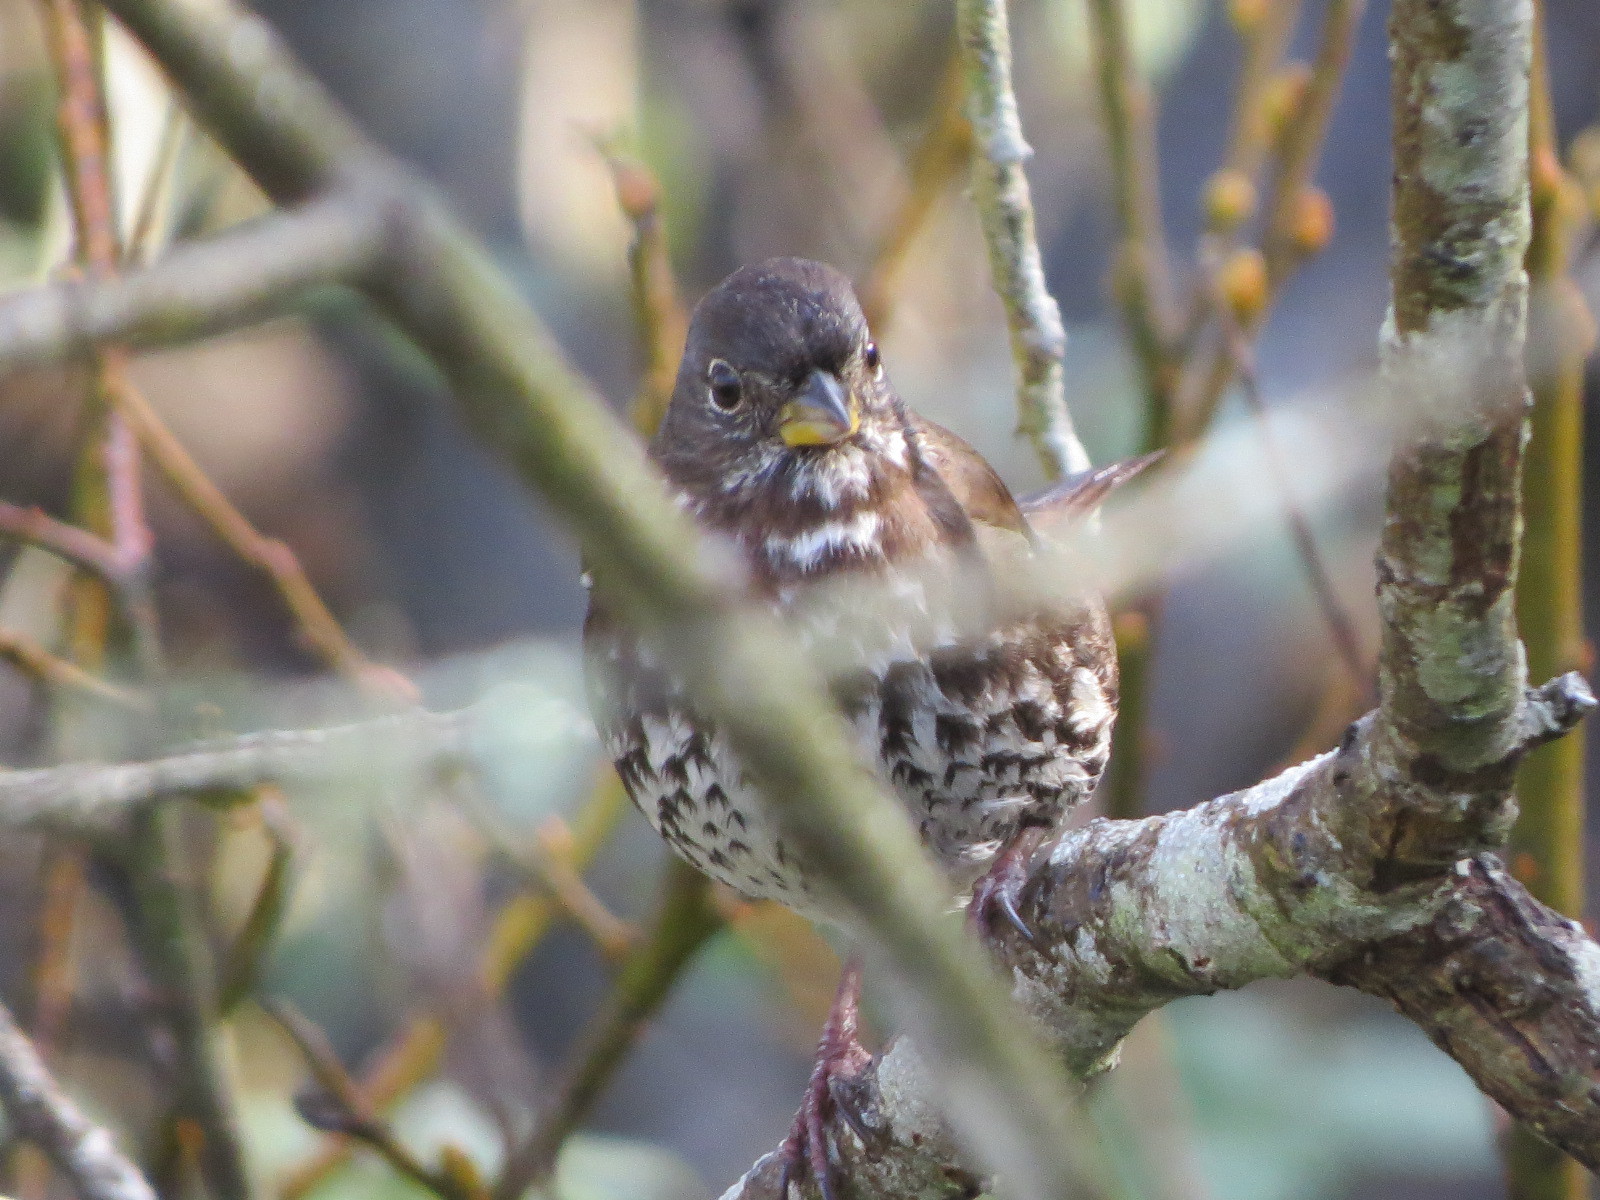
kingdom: Animalia
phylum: Chordata
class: Aves
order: Passeriformes
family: Passerellidae
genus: Passerella
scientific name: Passerella iliaca
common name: Fox sparrow
